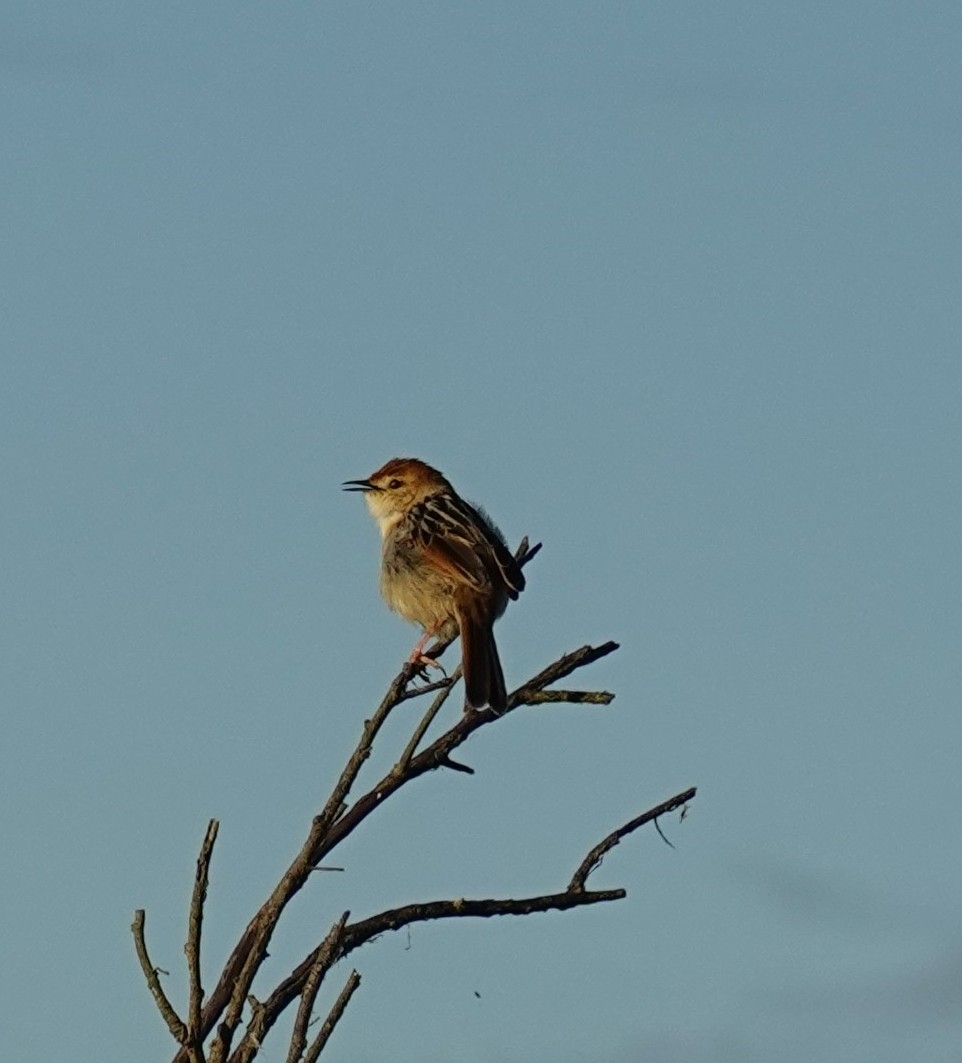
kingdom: Animalia
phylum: Chordata
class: Aves
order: Passeriformes
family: Cisticolidae
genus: Cisticola
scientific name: Cisticola tinniens
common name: Levaillant's cisticola
